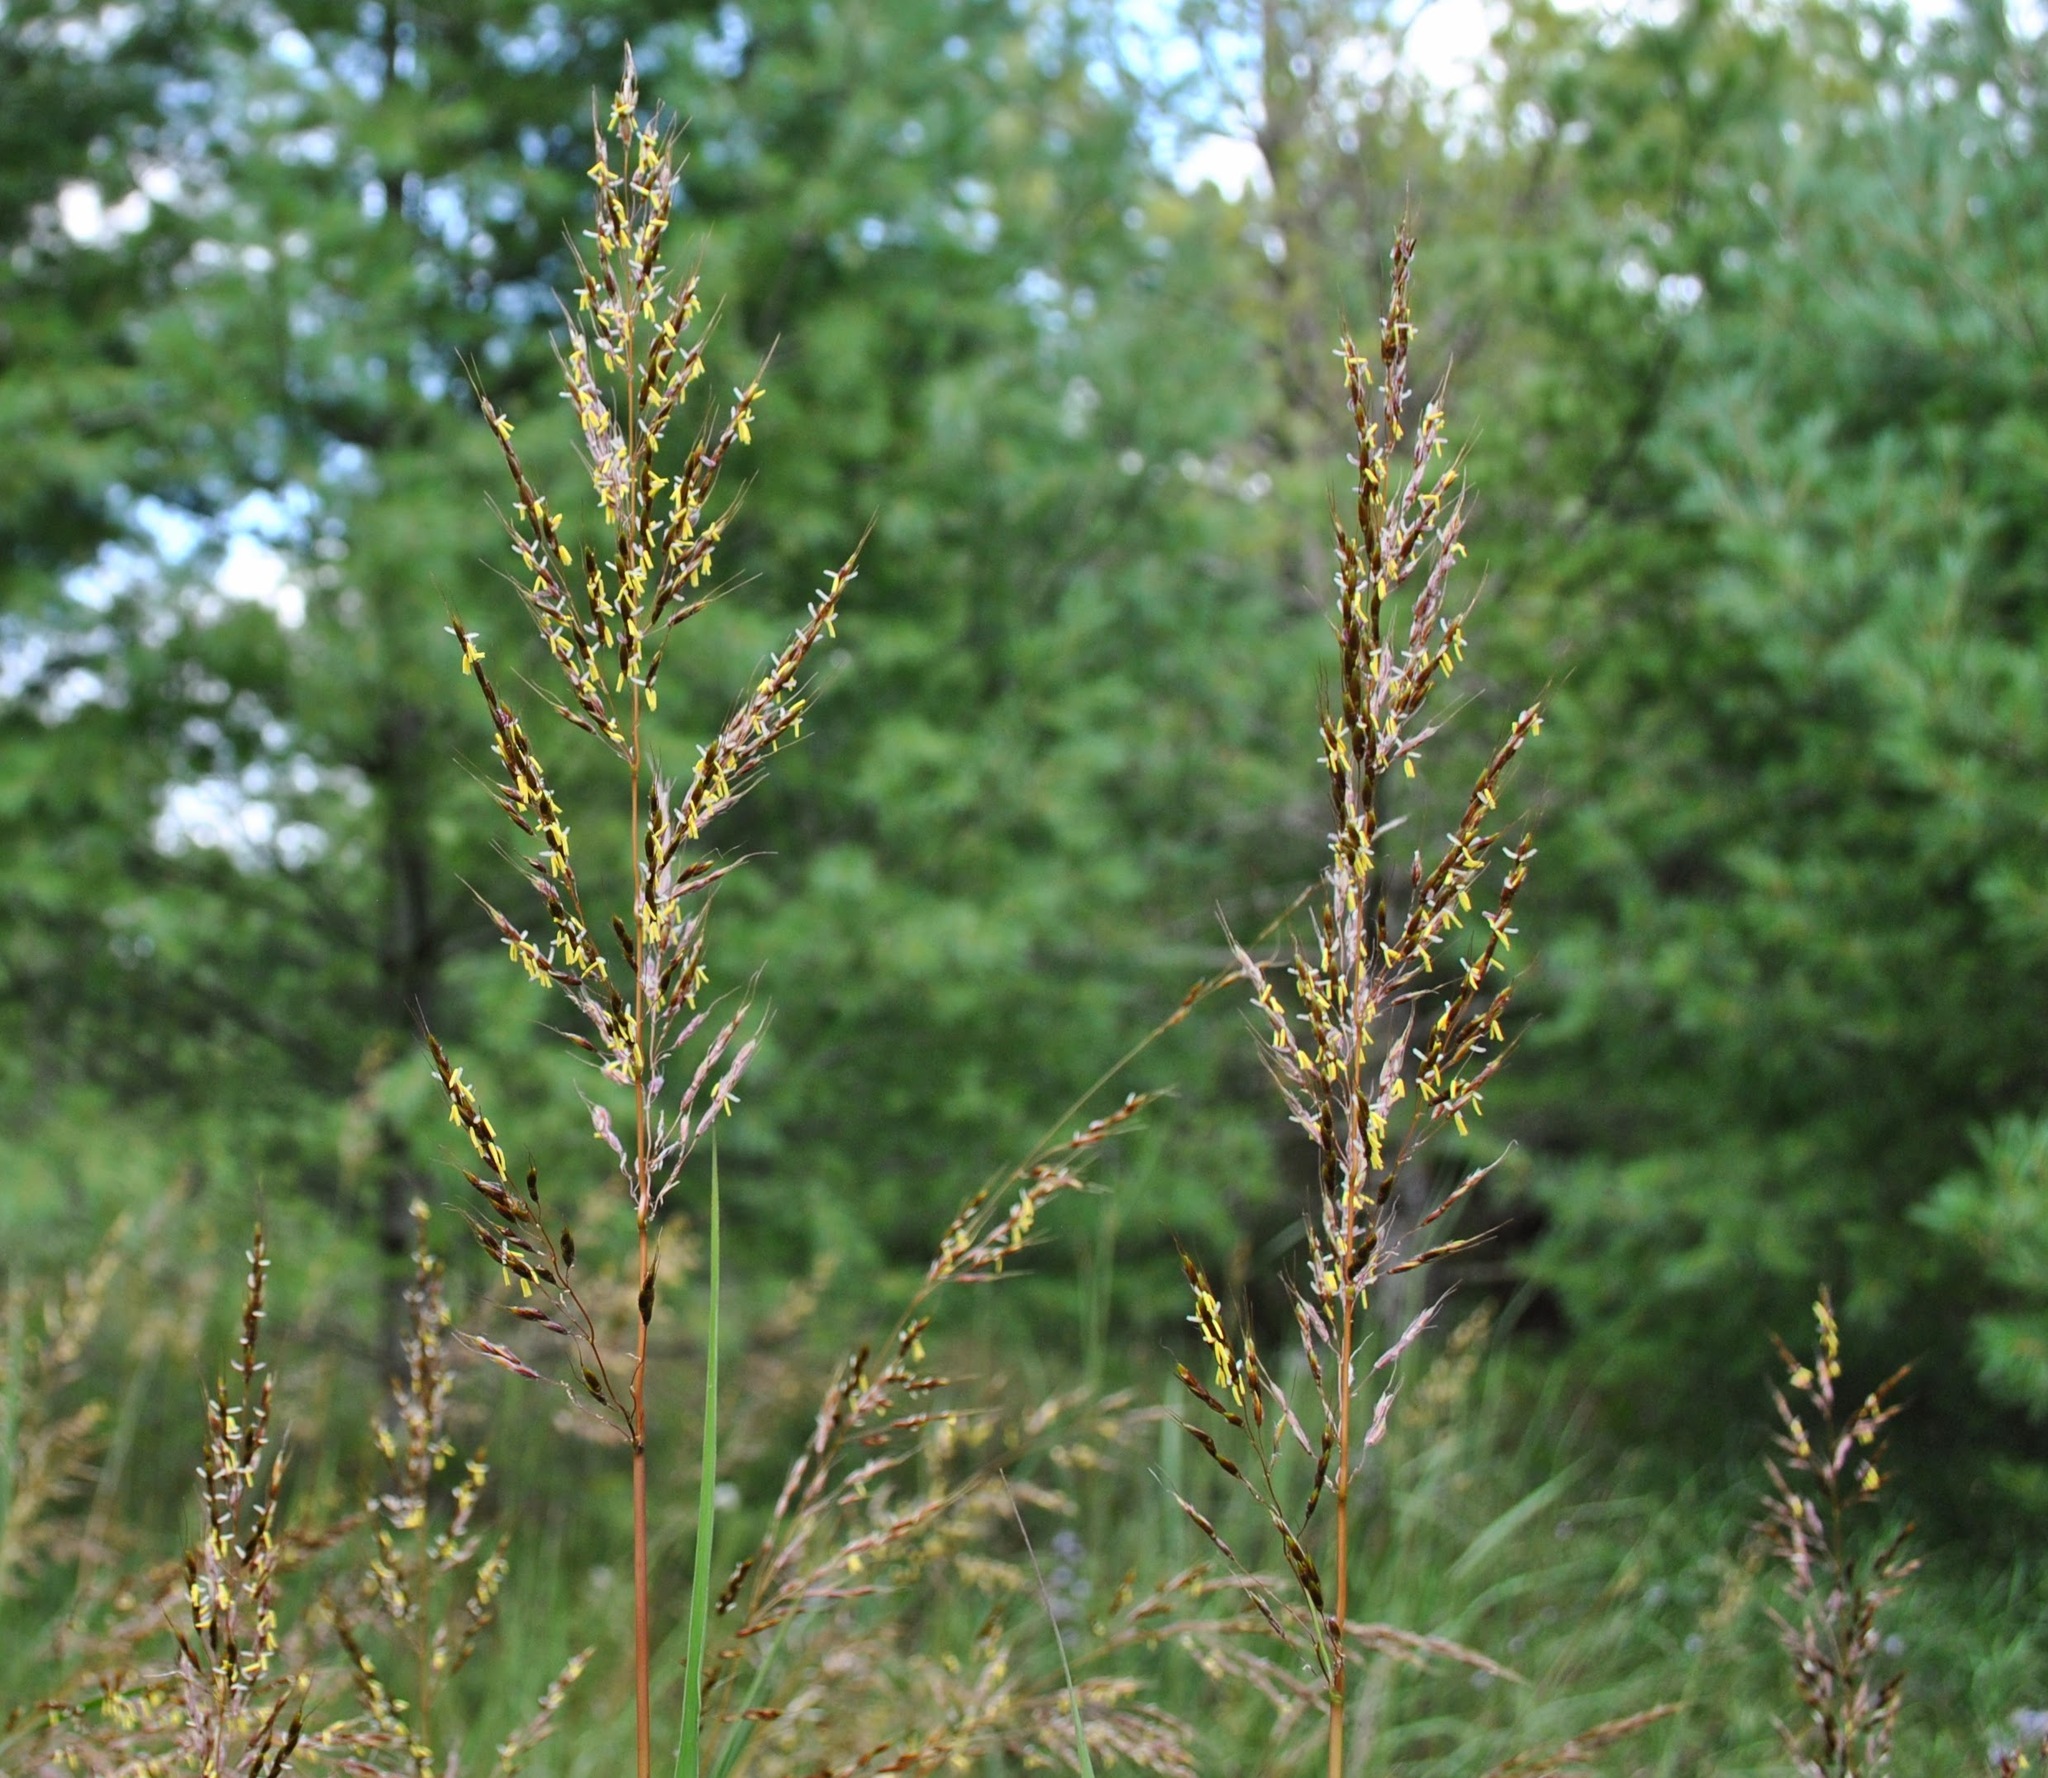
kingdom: Plantae
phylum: Tracheophyta
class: Liliopsida
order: Poales
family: Poaceae
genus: Sorghastrum
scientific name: Sorghastrum nutans
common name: Indian grass
